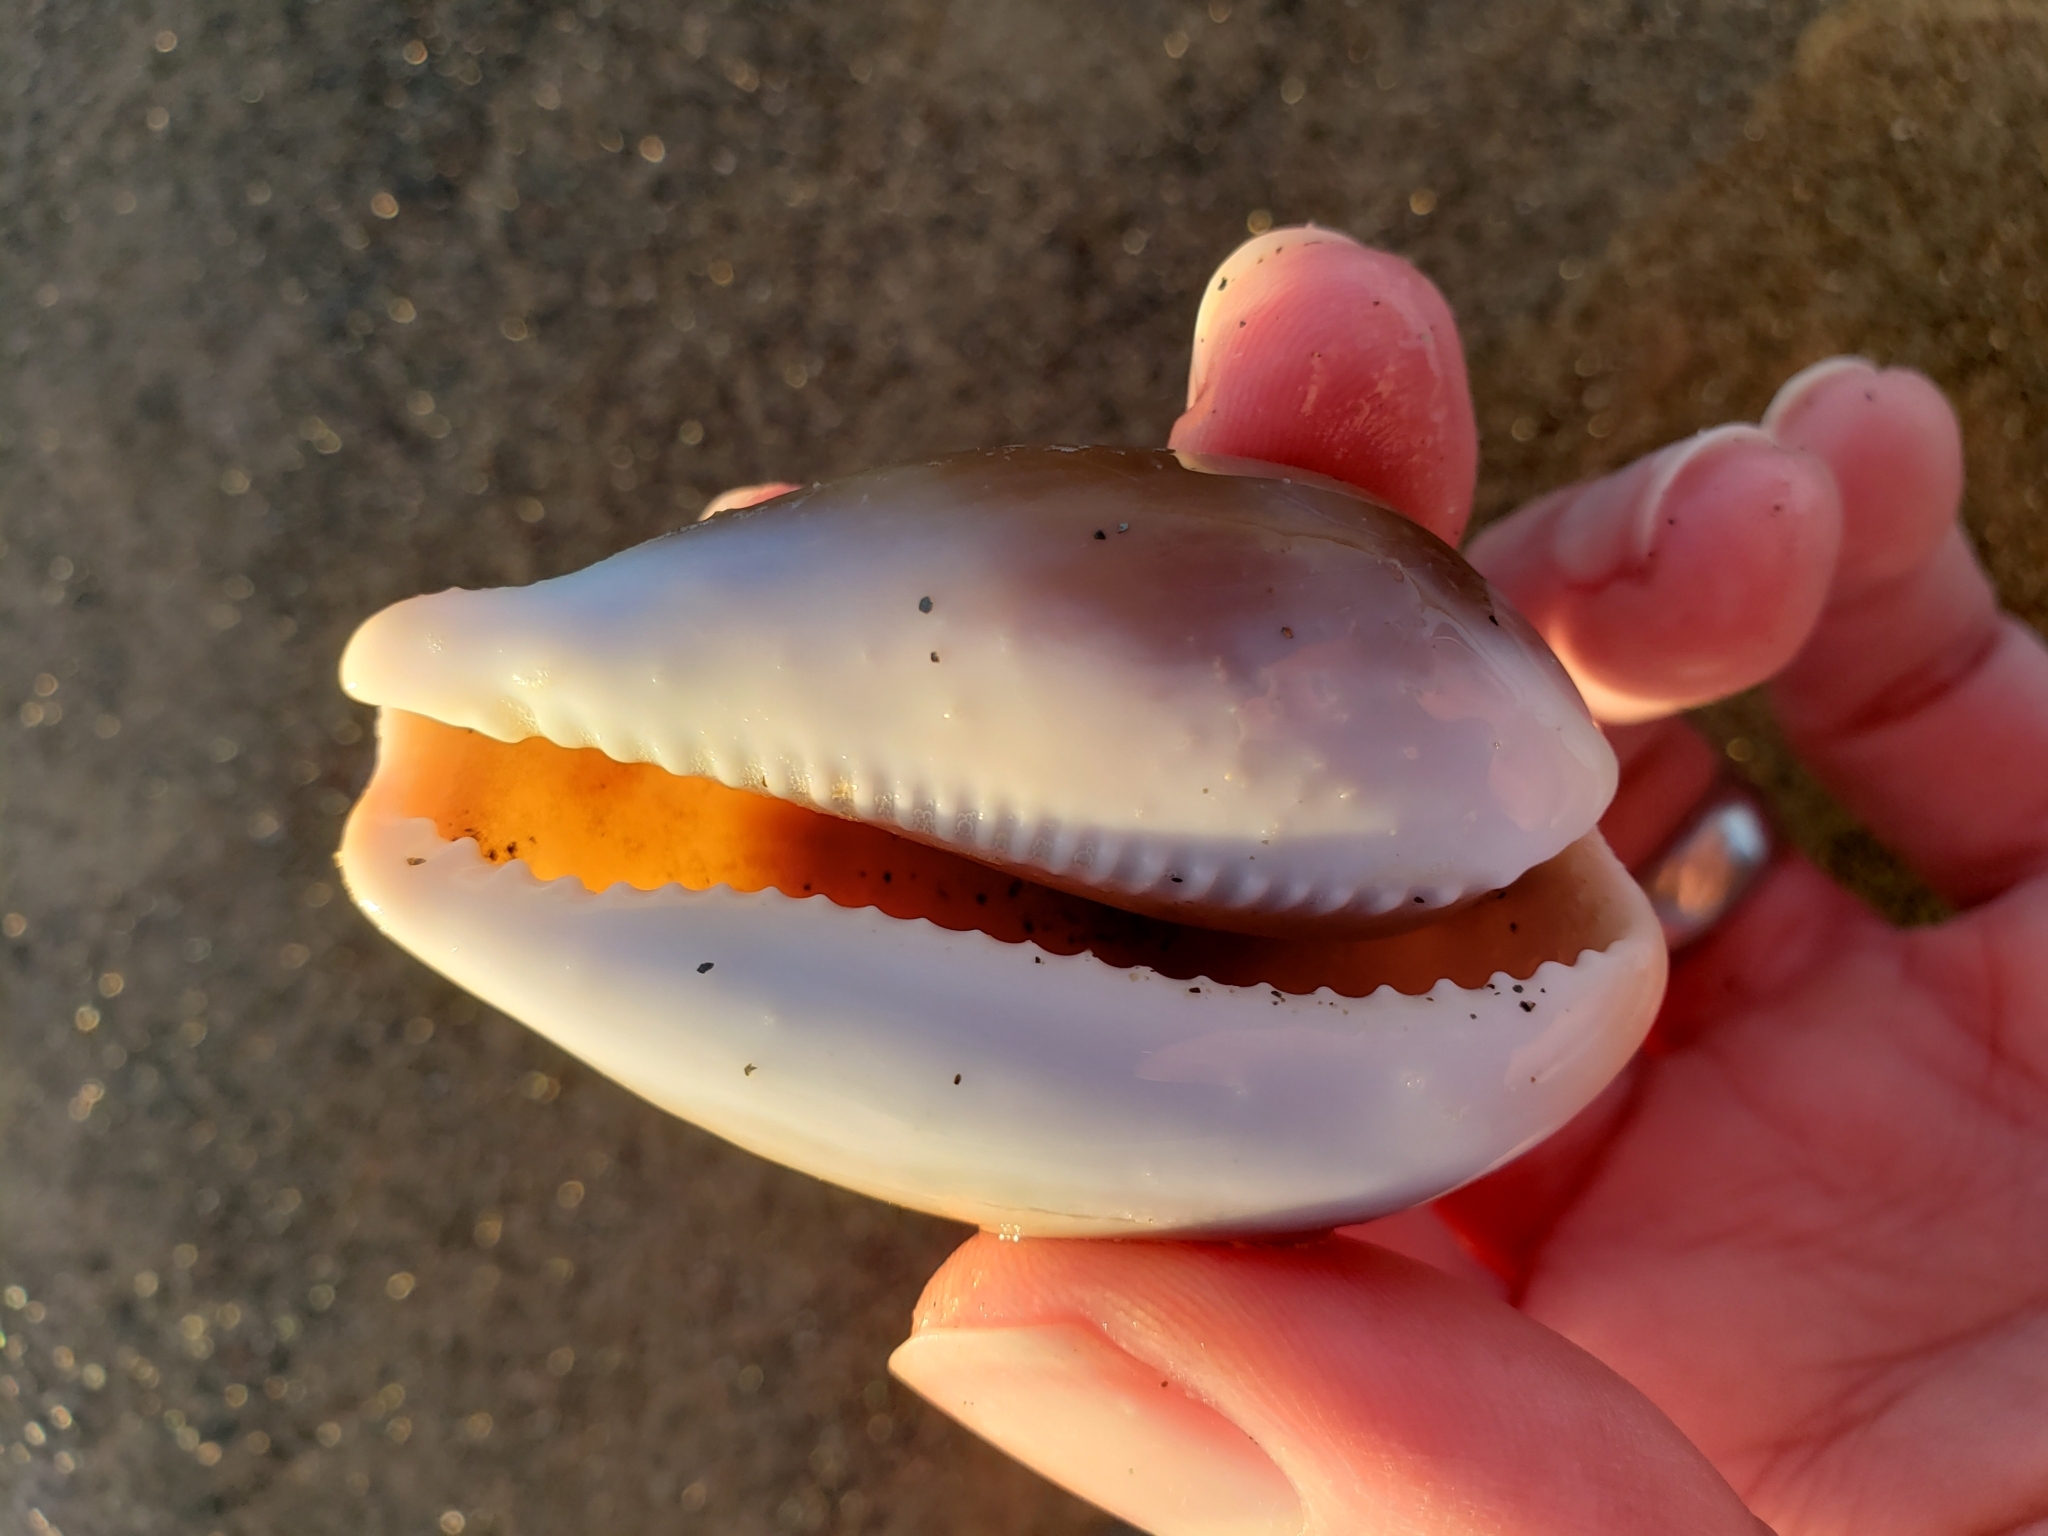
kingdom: Animalia
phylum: Mollusca
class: Gastropoda
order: Littorinimorpha
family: Cypraeidae
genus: Neobernaya
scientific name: Neobernaya spadicea
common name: Chestnut cowrie
